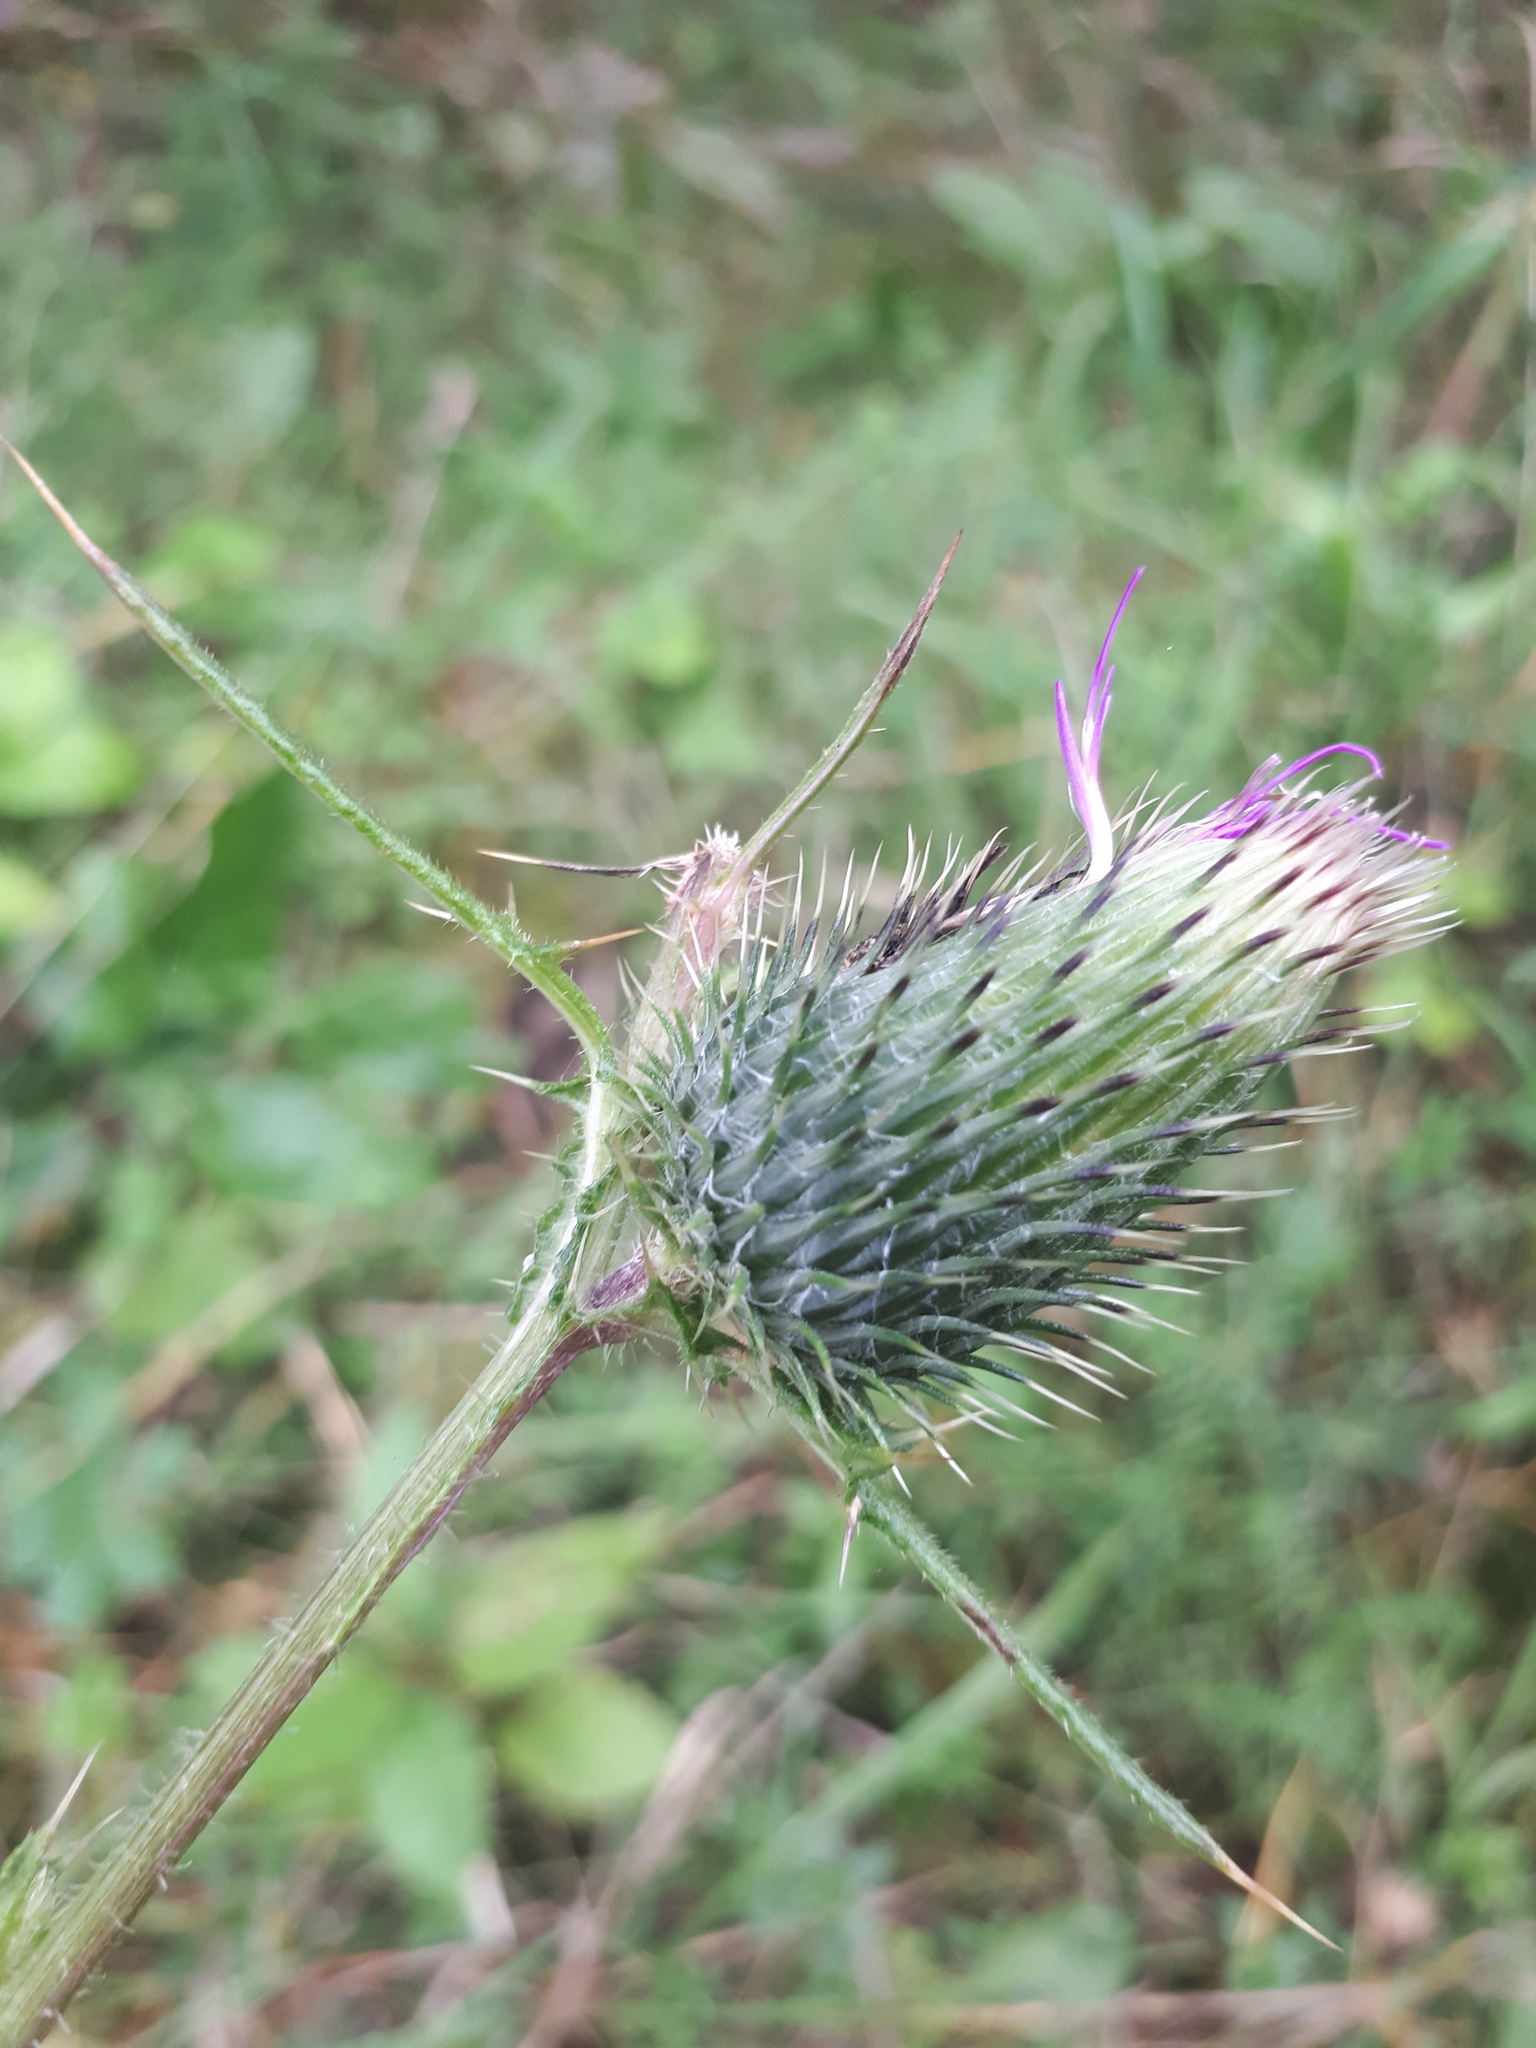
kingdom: Plantae
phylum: Tracheophyta
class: Magnoliopsida
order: Asterales
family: Asteraceae
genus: Cirsium
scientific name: Cirsium vulgare
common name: Bull thistle
